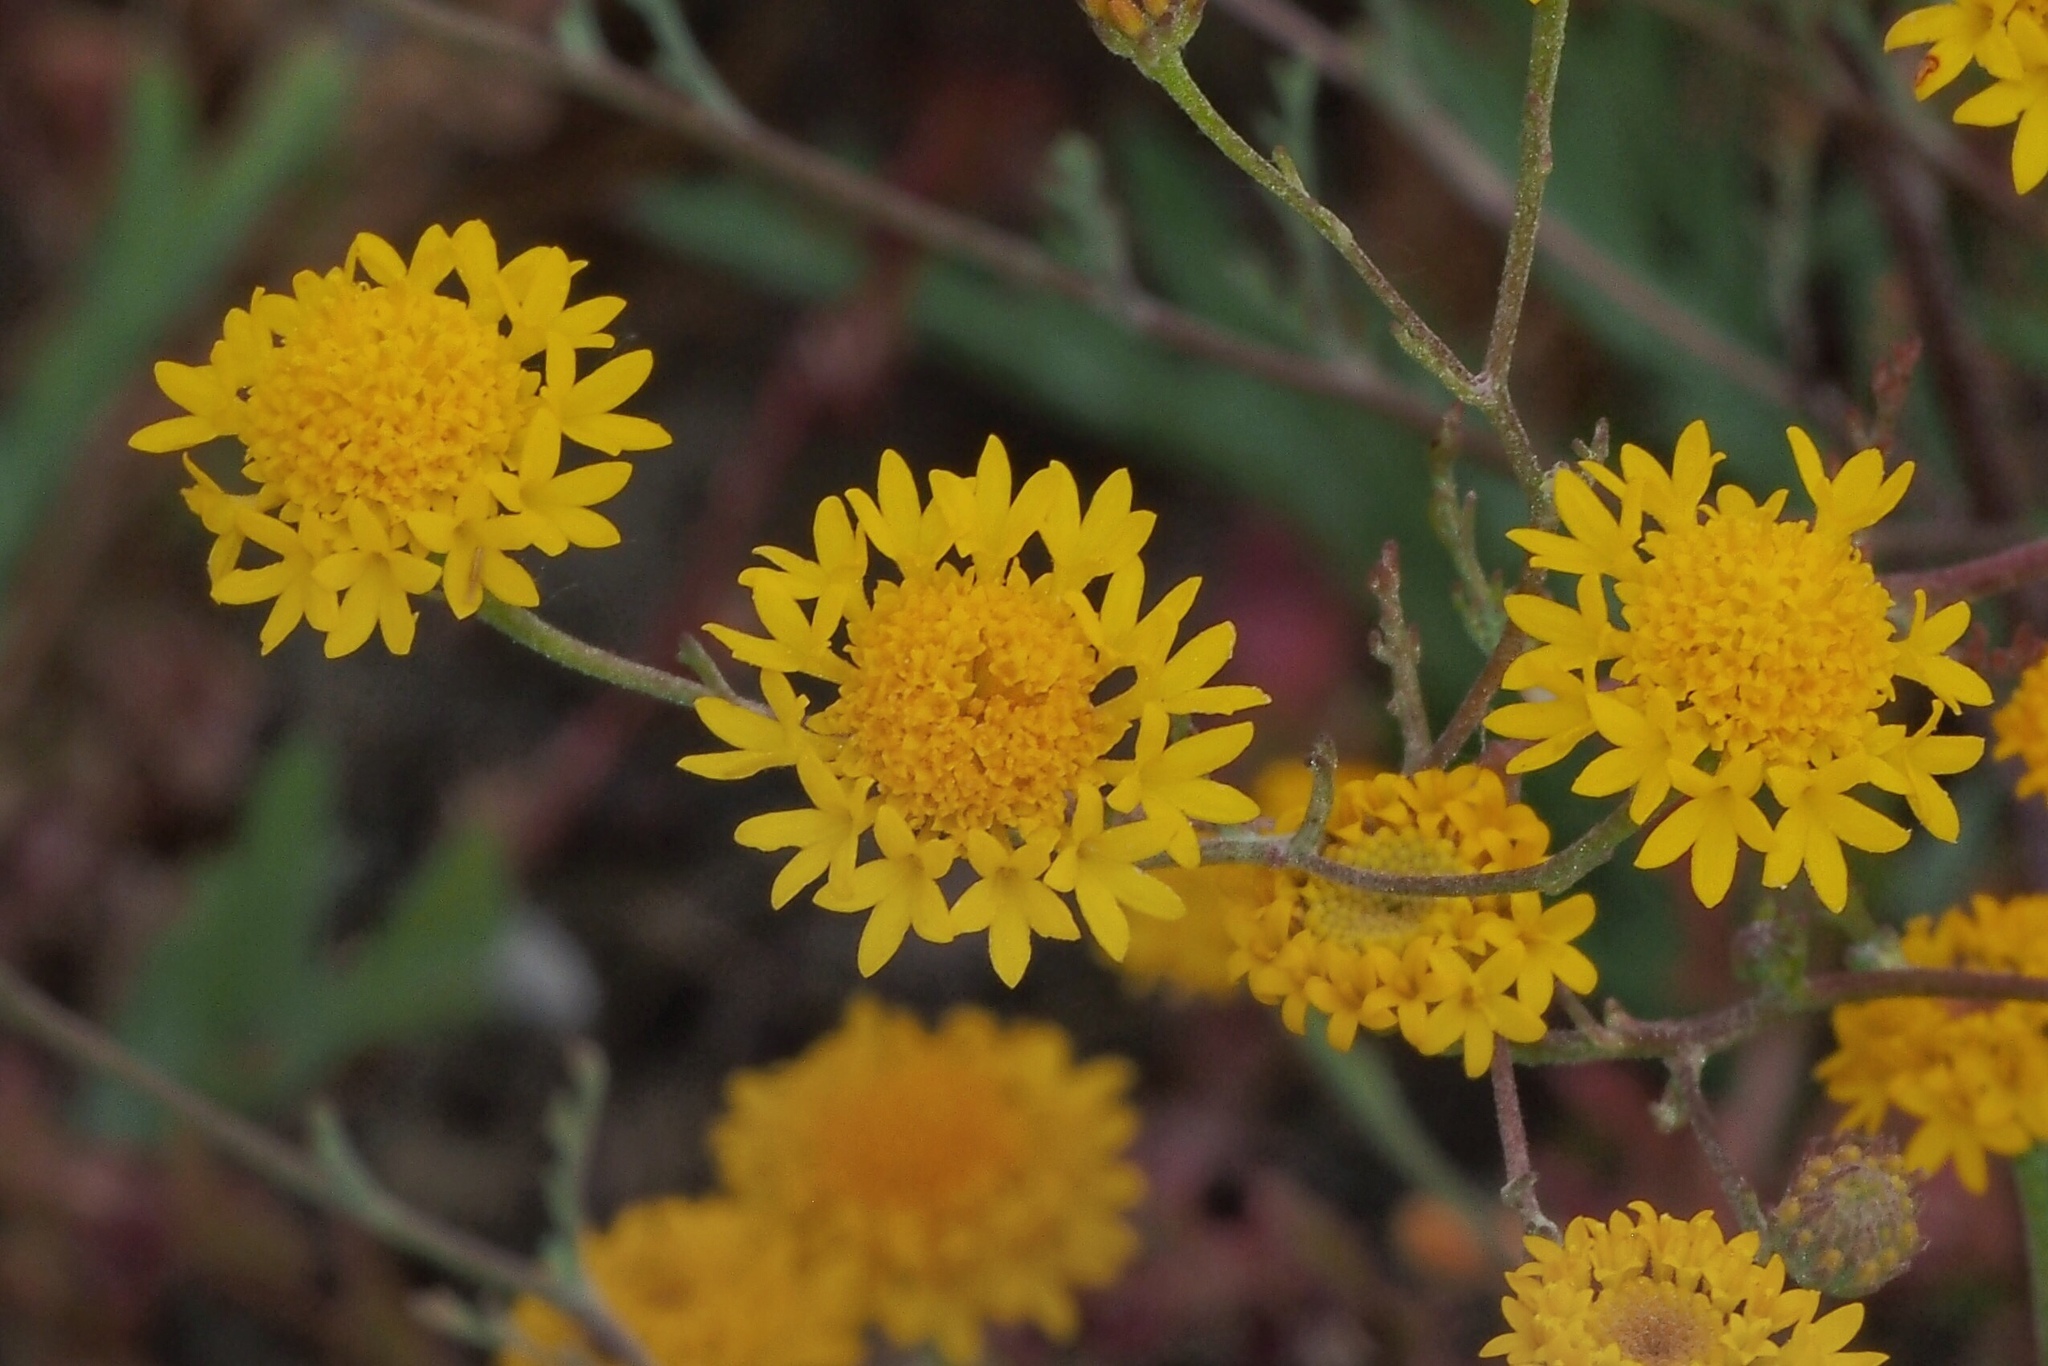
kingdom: Plantae
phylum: Tracheophyta
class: Magnoliopsida
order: Asterales
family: Asteraceae
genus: Chaenactis
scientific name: Chaenactis glabriuscula
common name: Yellow pincushion
